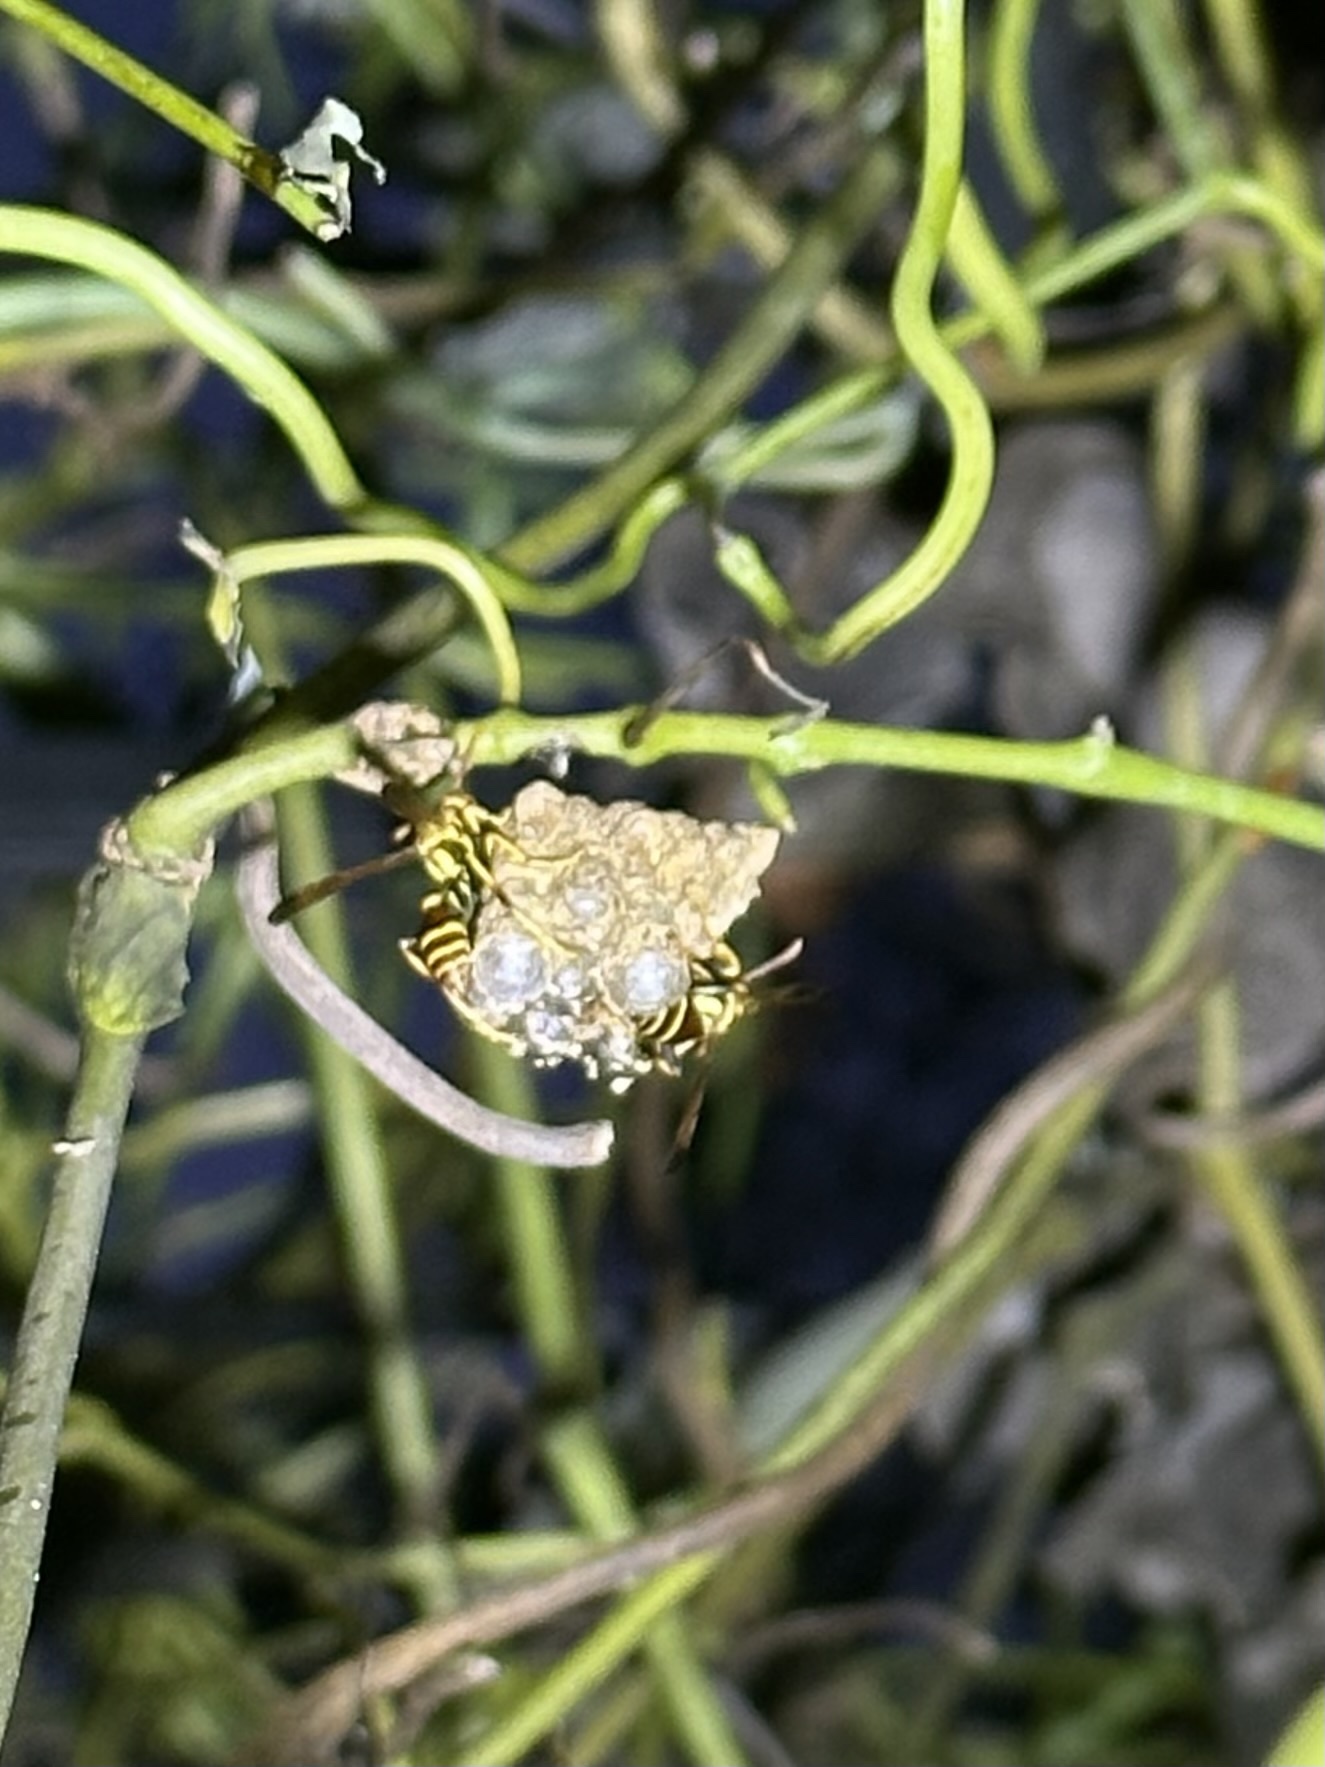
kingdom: Animalia
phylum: Arthropoda
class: Insecta
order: Hymenoptera
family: Vespidae
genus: Mischocyttarus
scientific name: Mischocyttarus mexicanus
